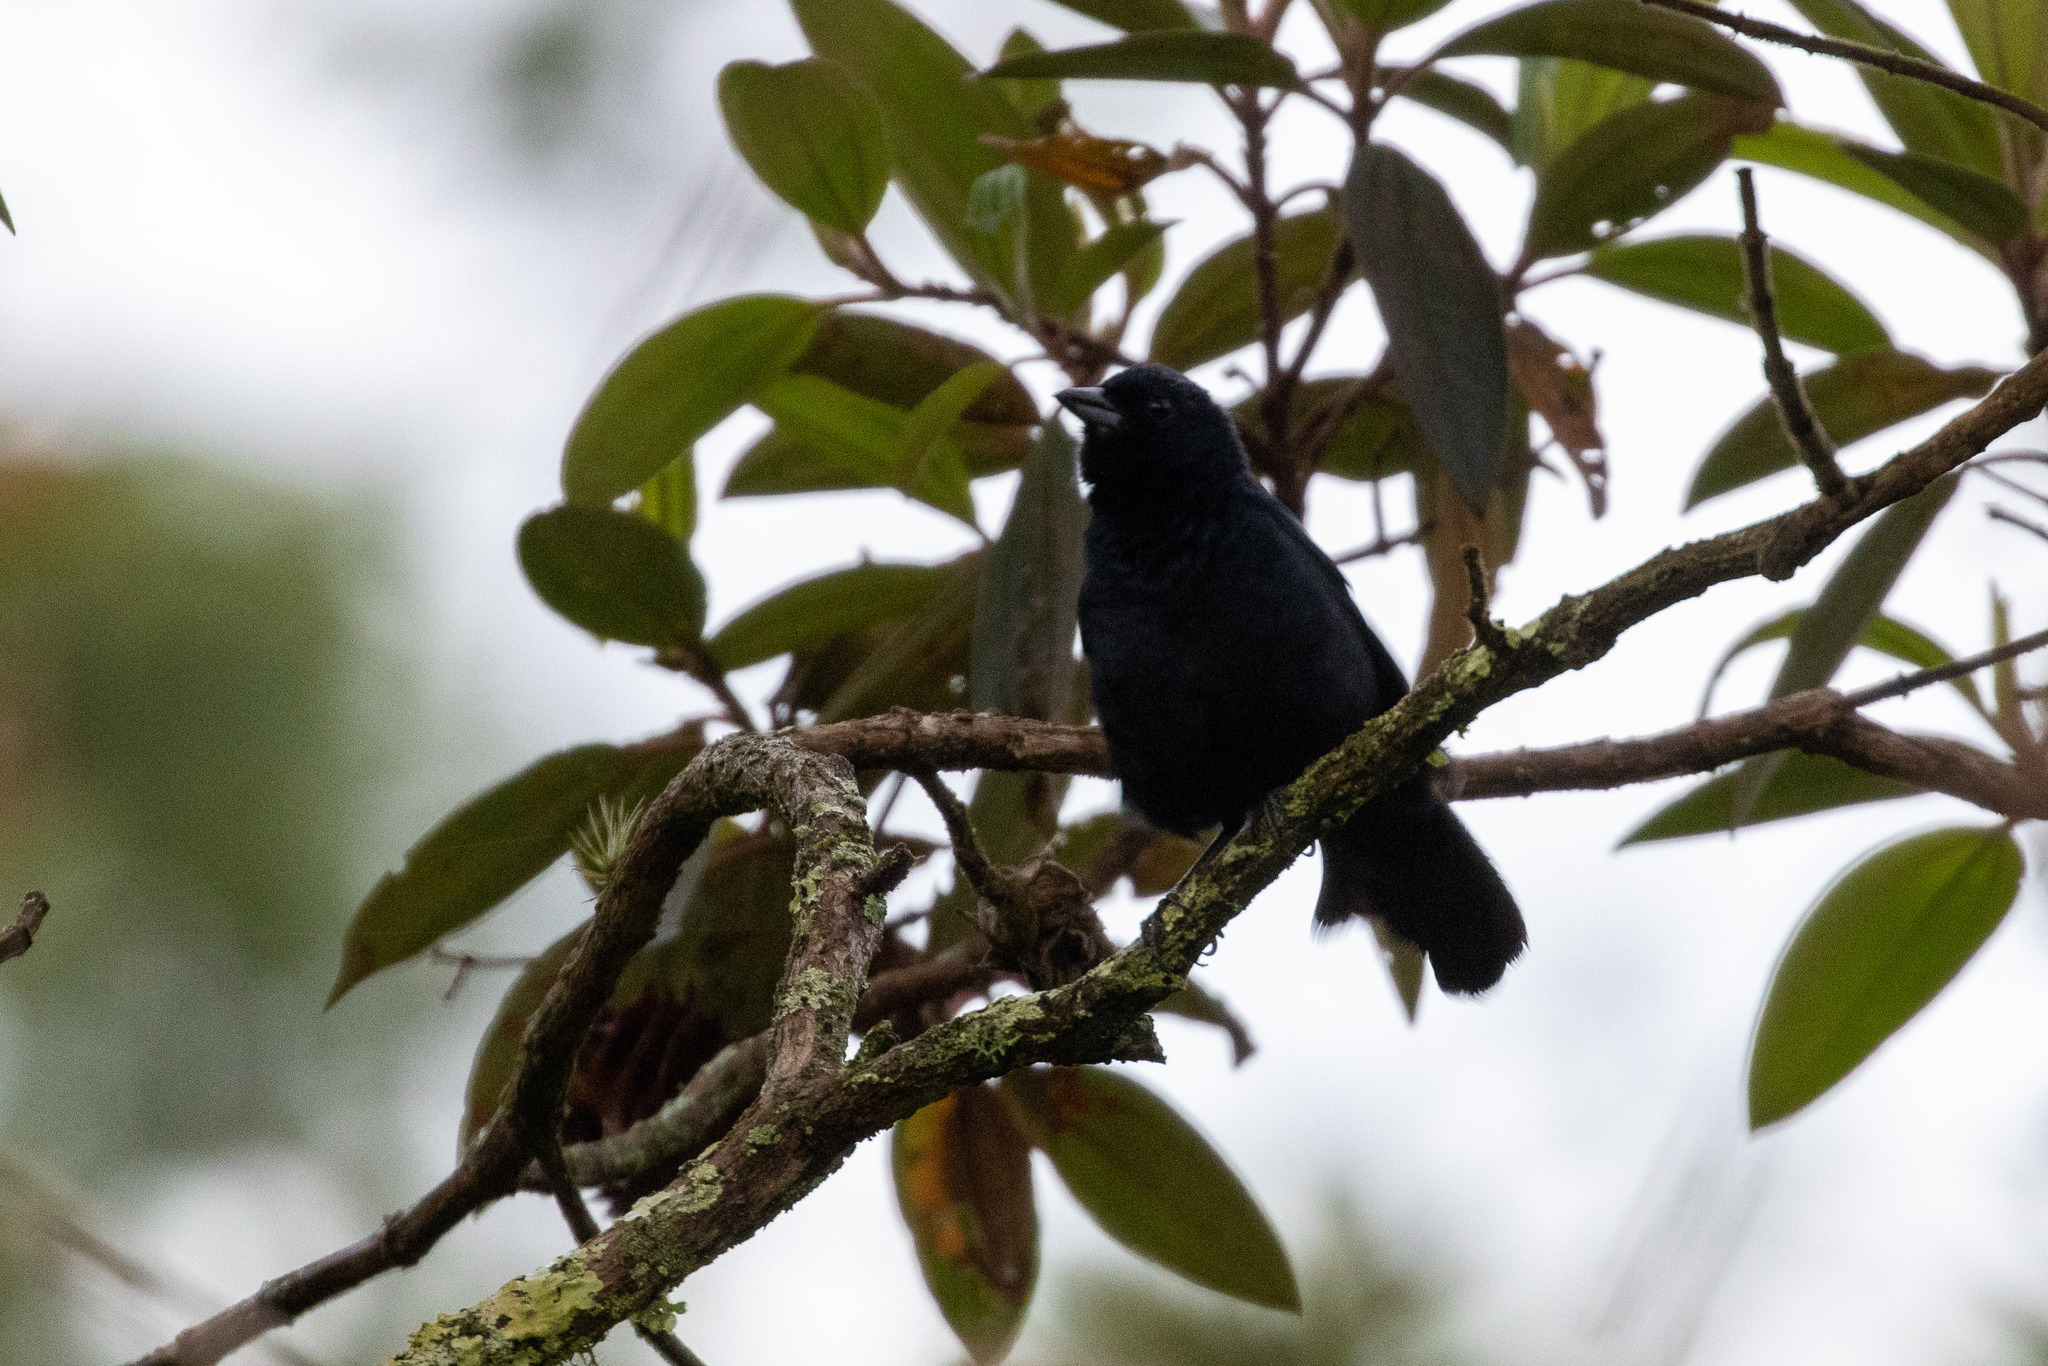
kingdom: Animalia
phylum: Chordata
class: Aves
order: Passeriformes
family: Thraupidae
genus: Tachyphonus
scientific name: Tachyphonus coronatus
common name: Ruby-crowned tanager
